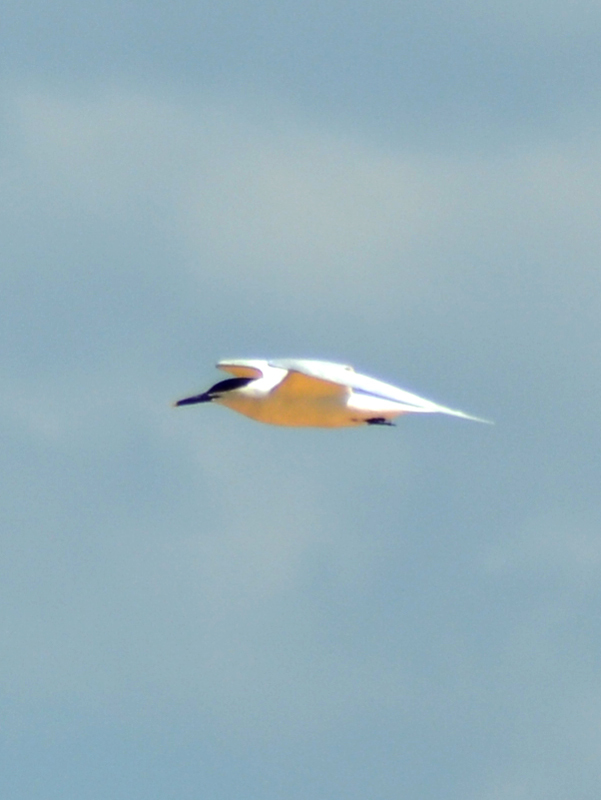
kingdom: Animalia
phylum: Chordata
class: Aves
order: Charadriiformes
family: Laridae
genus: Thalasseus
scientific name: Thalasseus sandvicensis
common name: Sandwich tern
